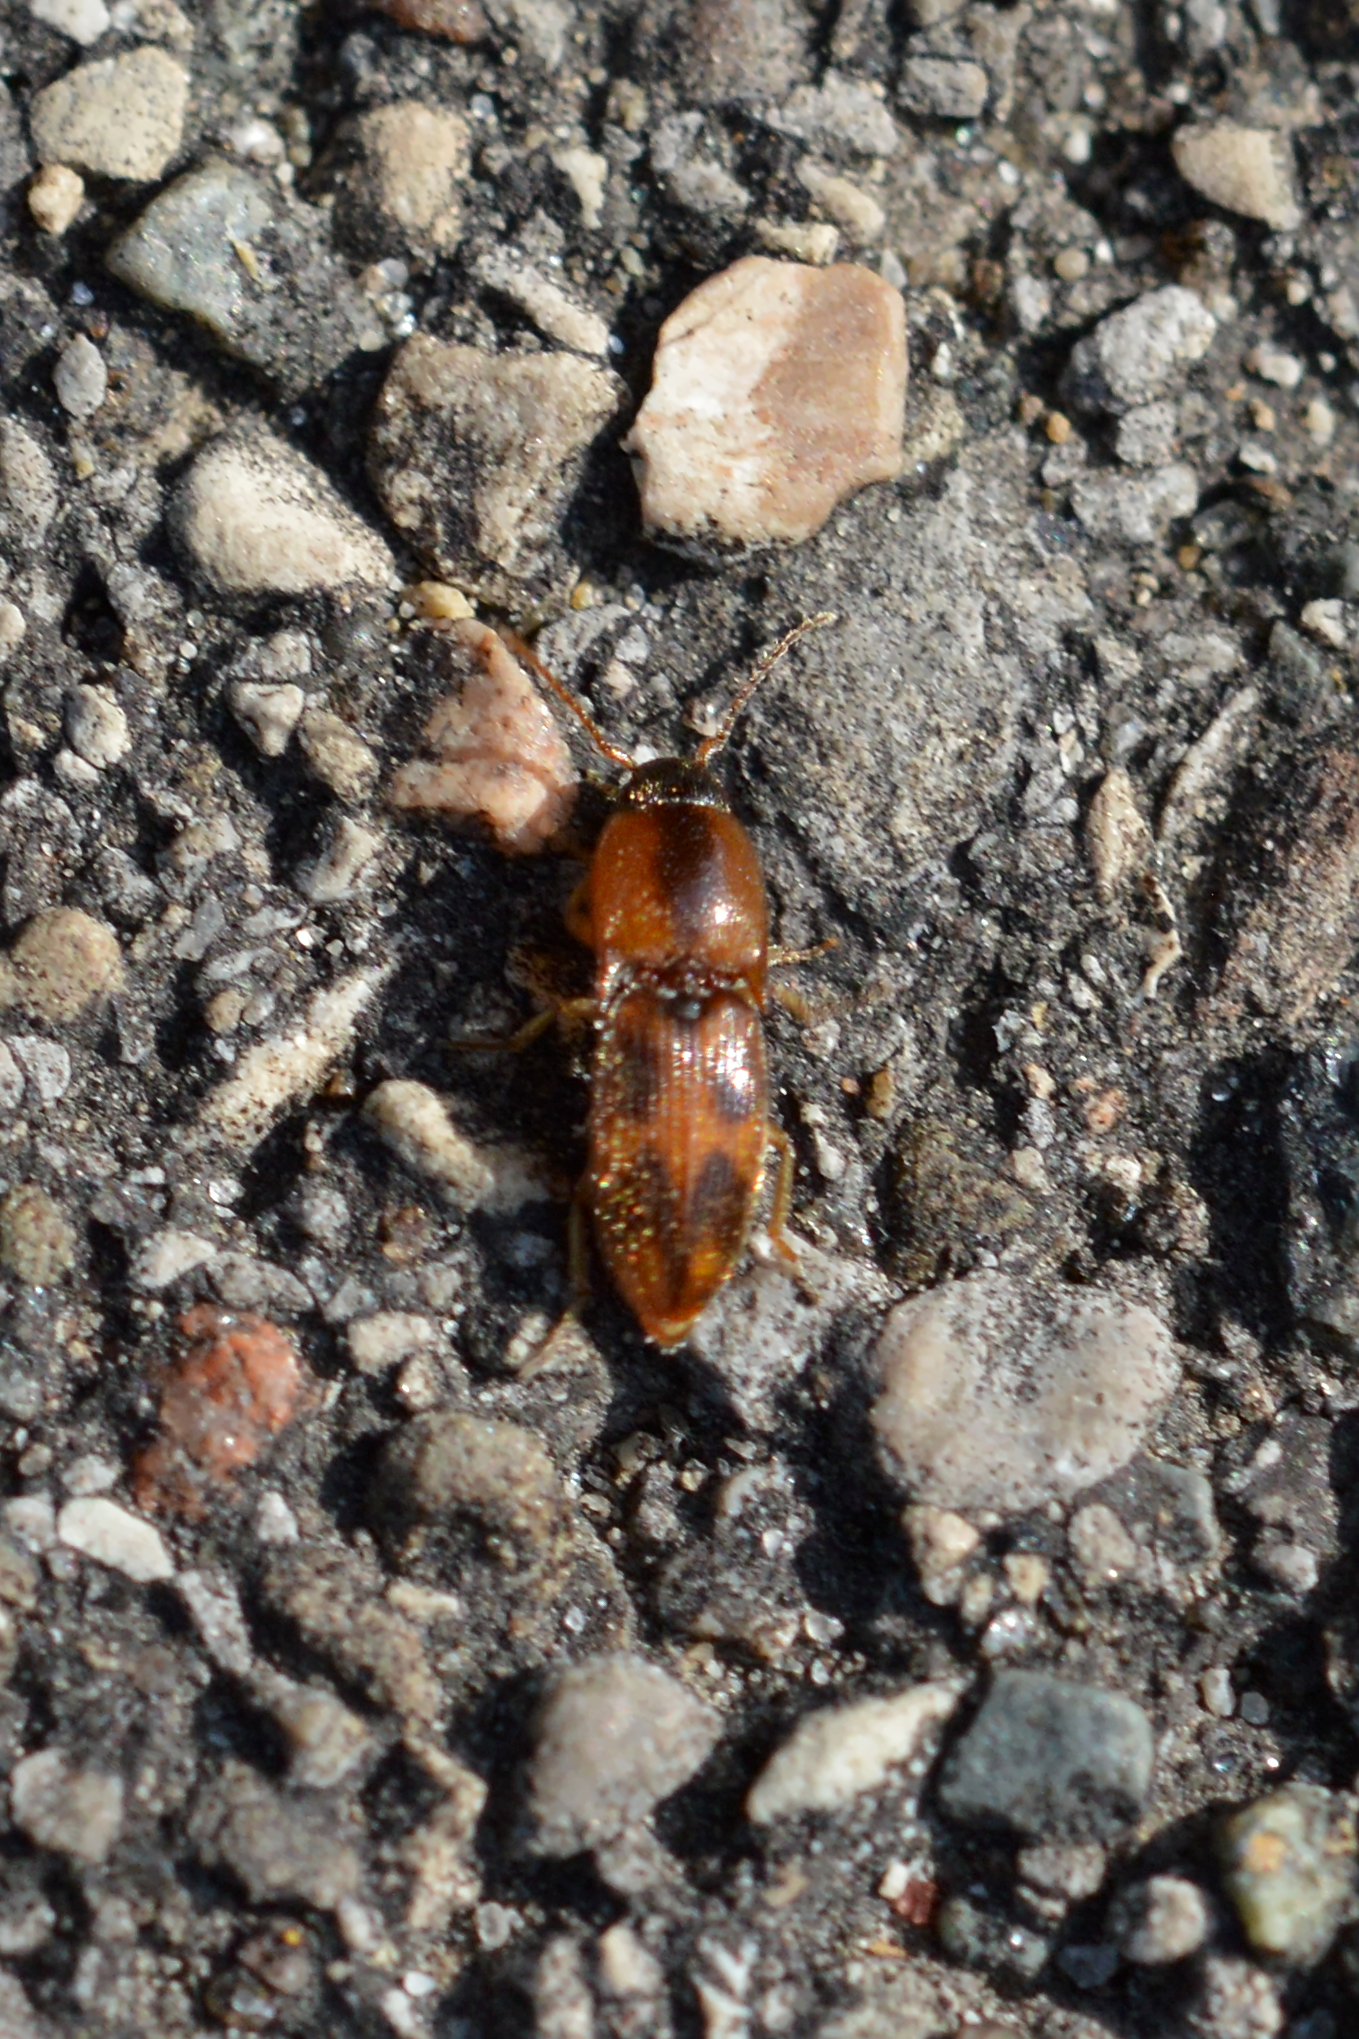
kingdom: Animalia
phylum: Arthropoda
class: Insecta
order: Coleoptera
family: Elateridae
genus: Aeolus
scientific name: Aeolus mellillus
